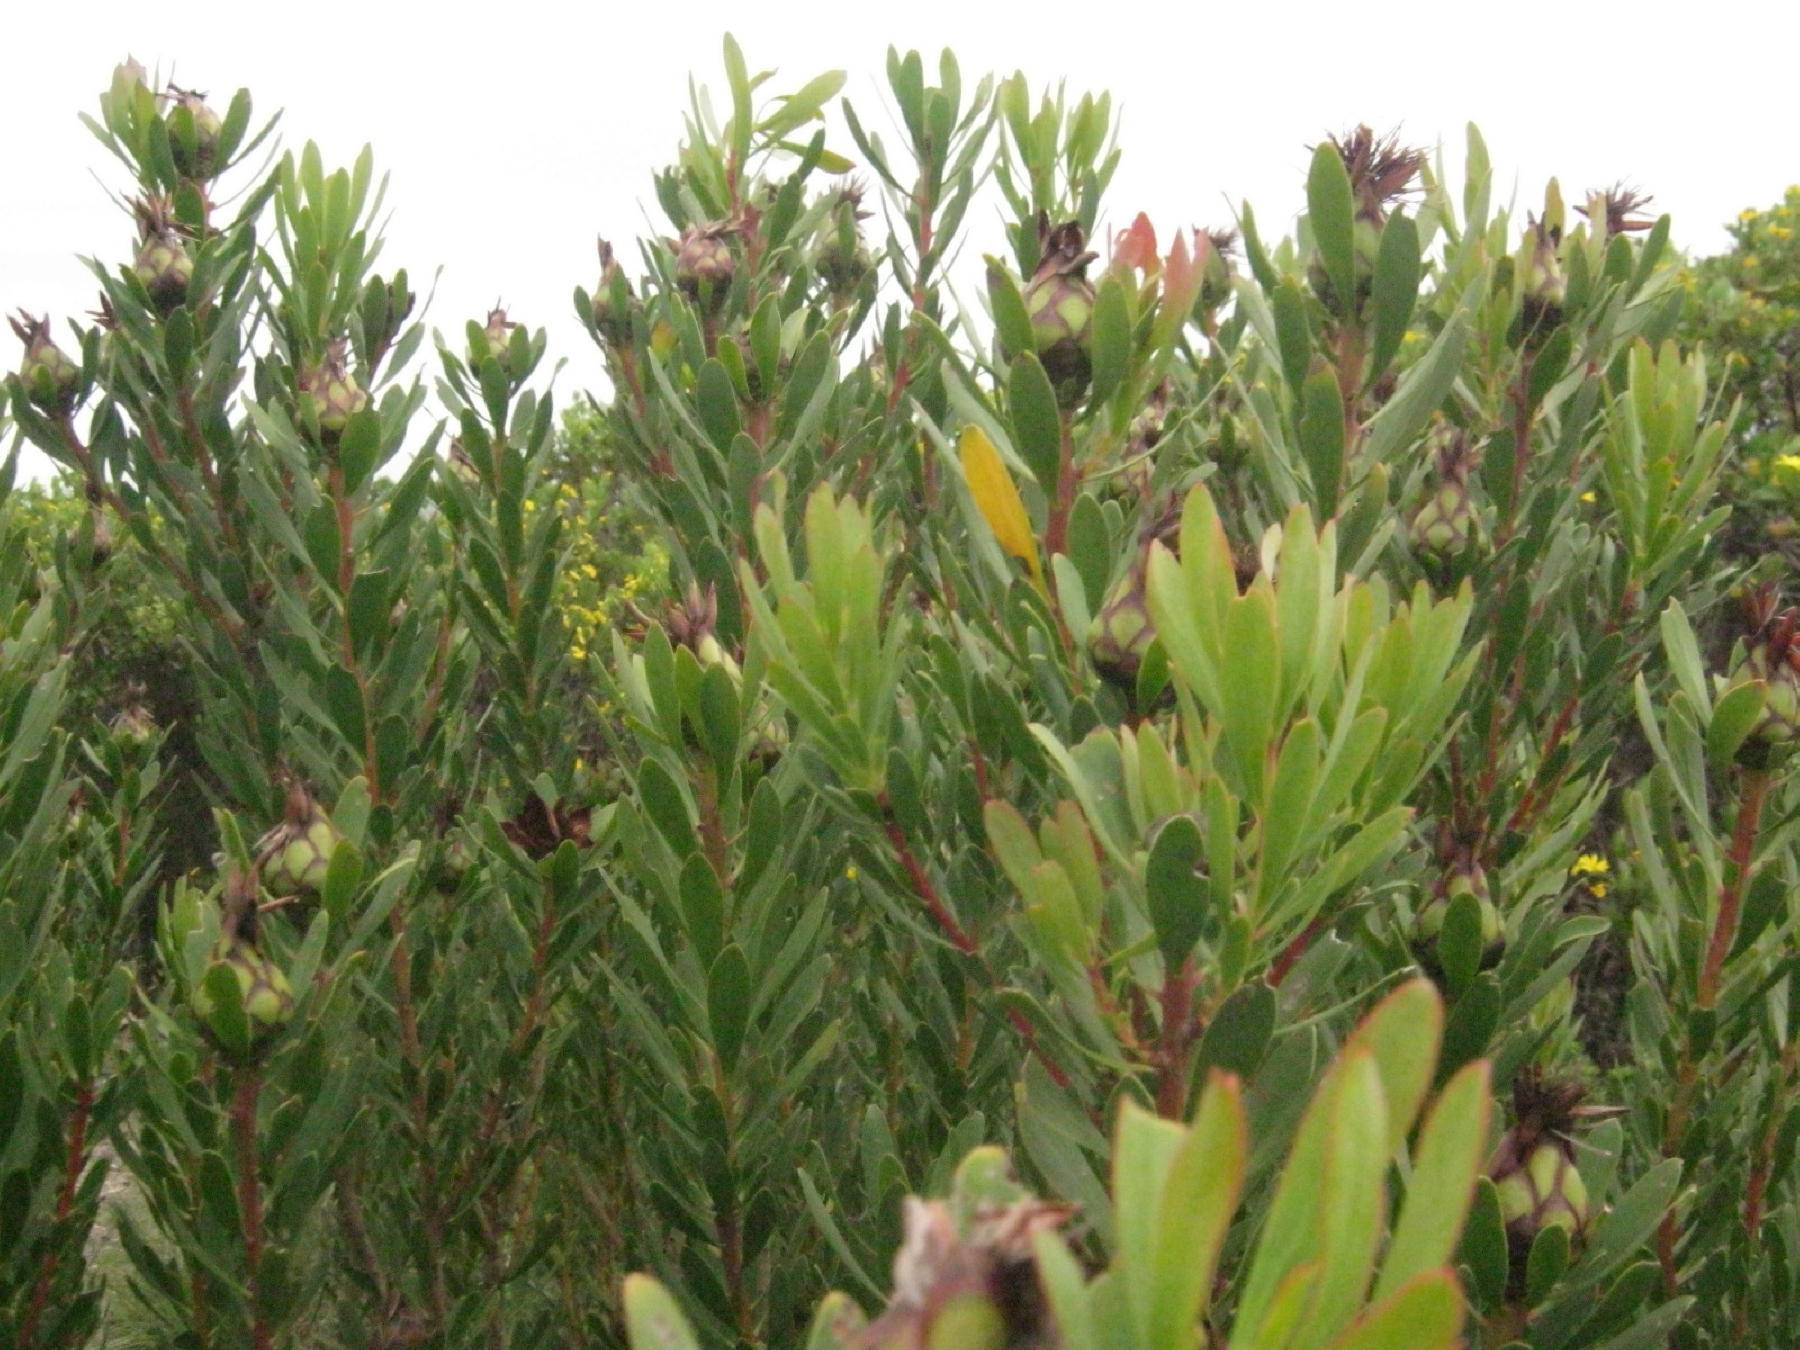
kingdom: Plantae
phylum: Tracheophyta
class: Magnoliopsida
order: Proteales
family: Proteaceae
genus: Protea
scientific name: Protea lanceolata
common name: Lance-leaved protea
